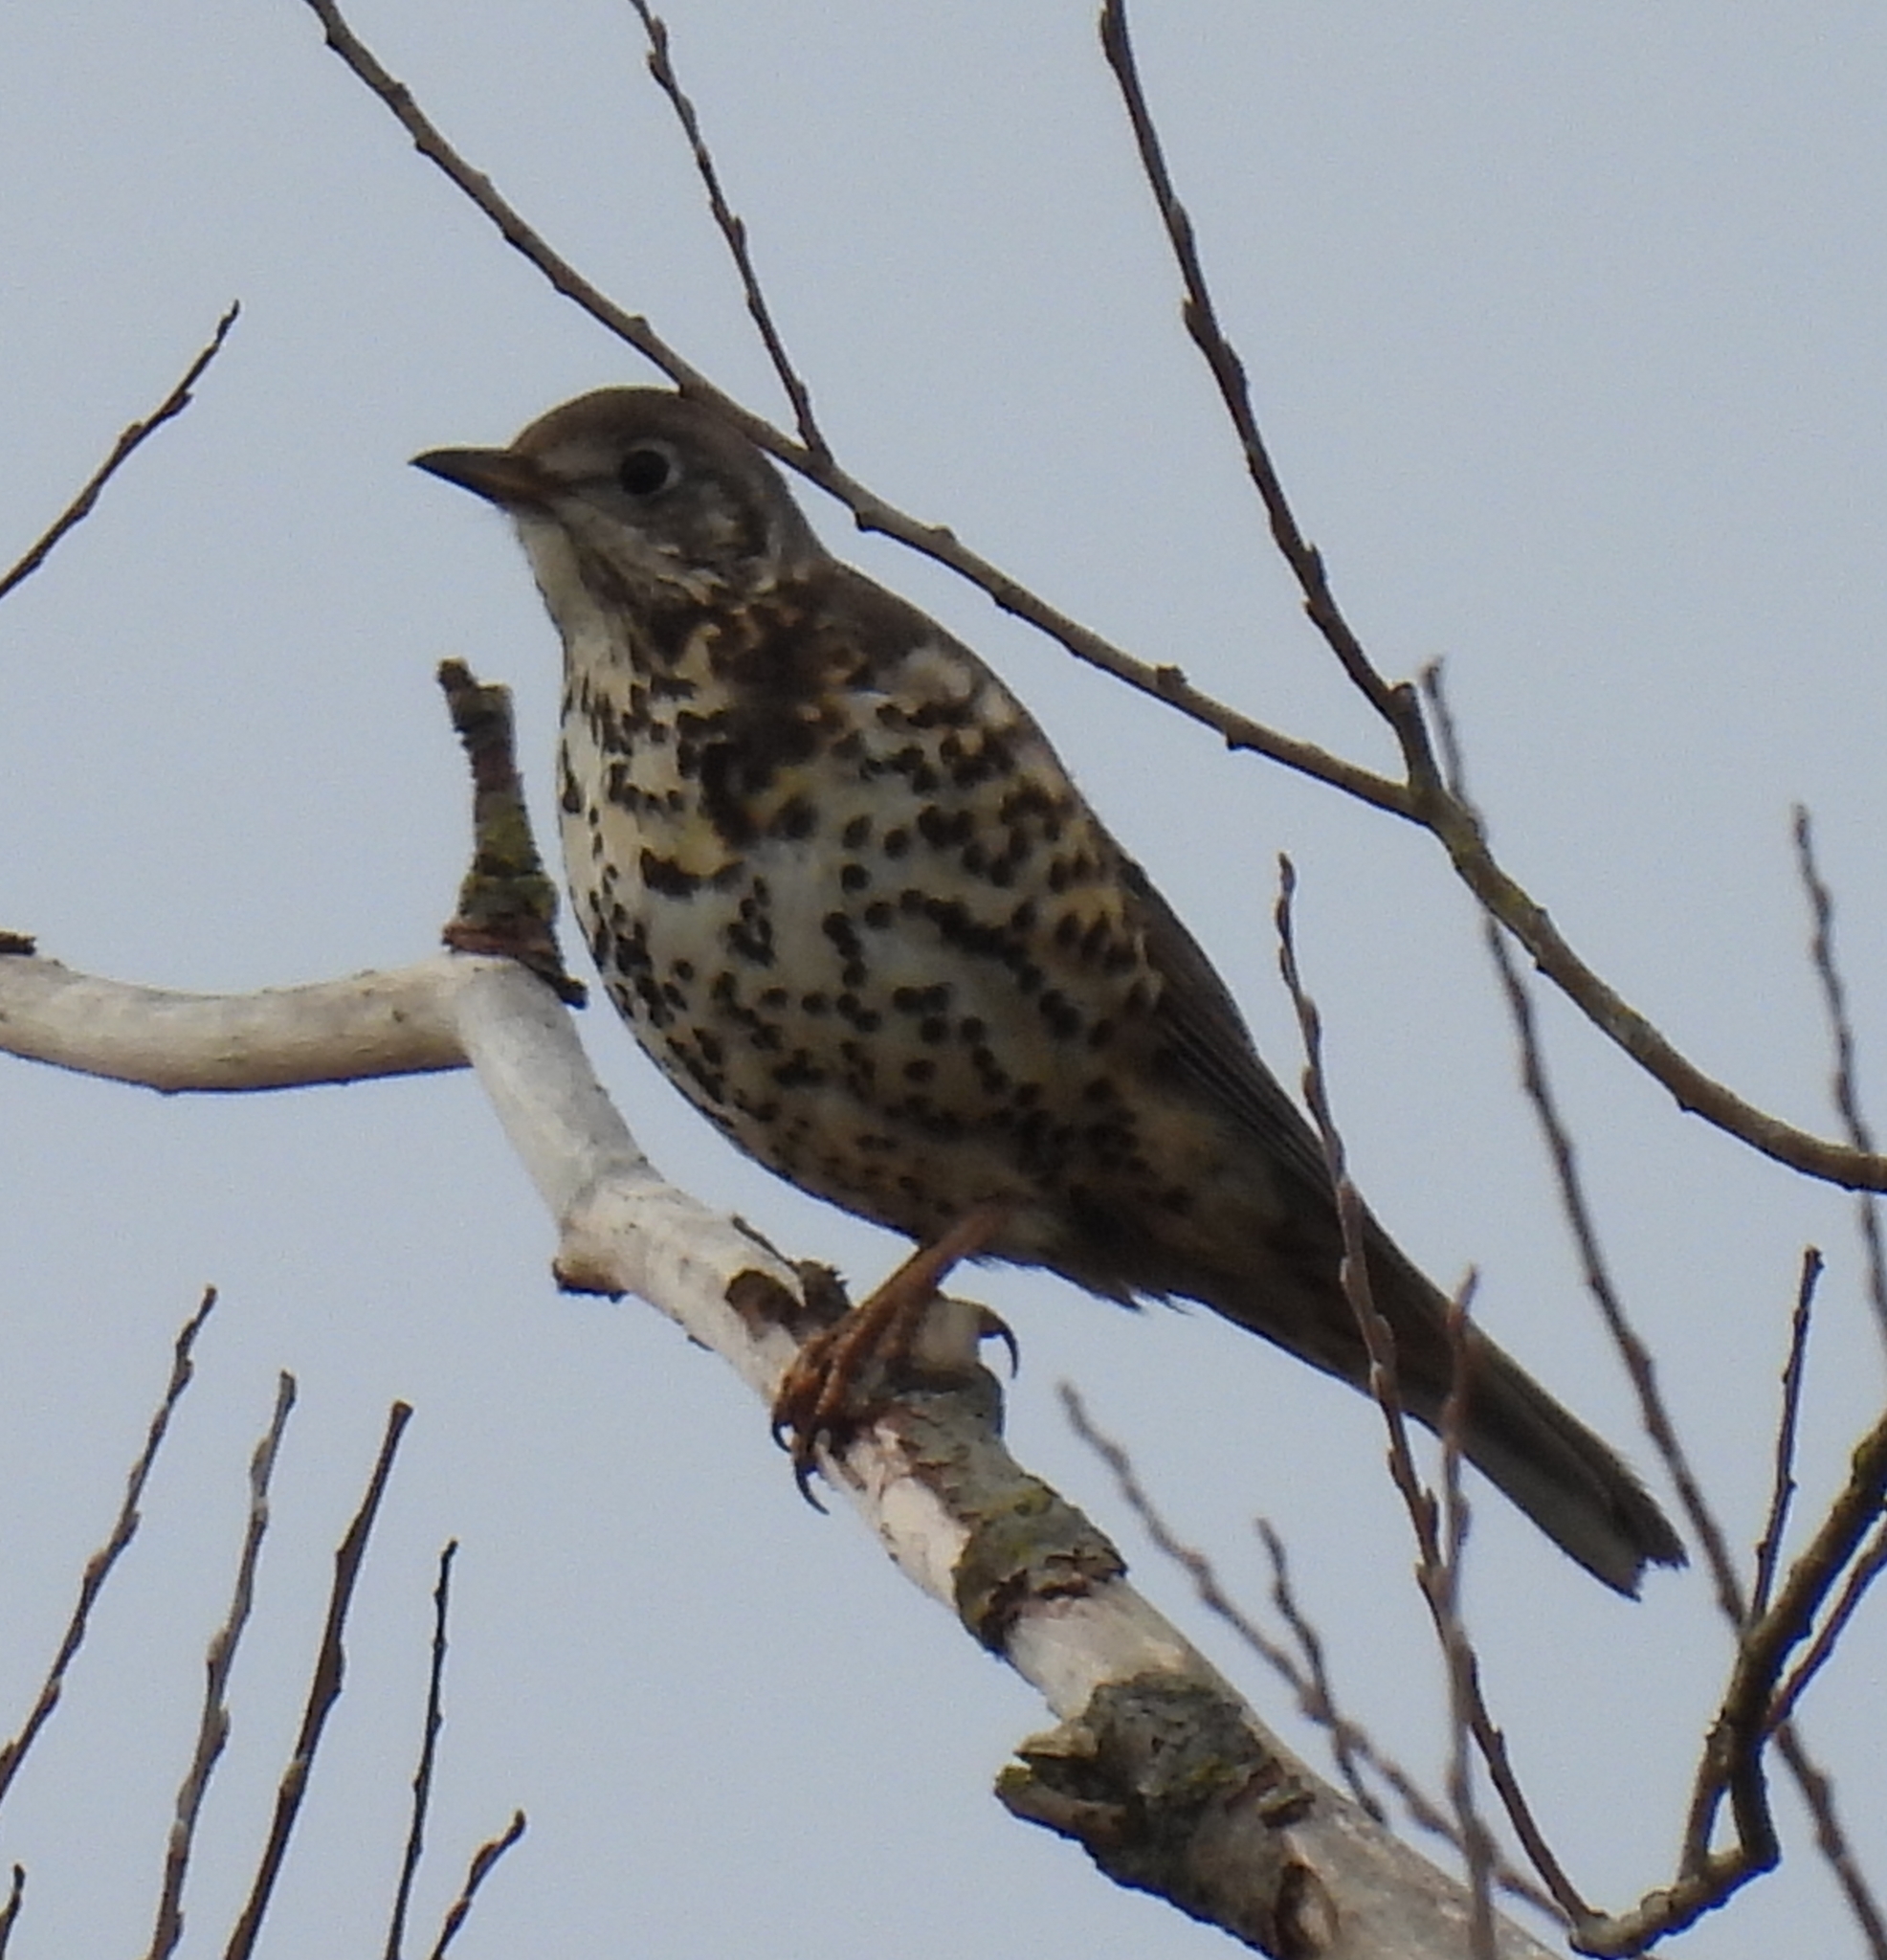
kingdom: Animalia
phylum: Chordata
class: Aves
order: Passeriformes
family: Turdidae
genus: Turdus
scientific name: Turdus viscivorus
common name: Mistle thrush
